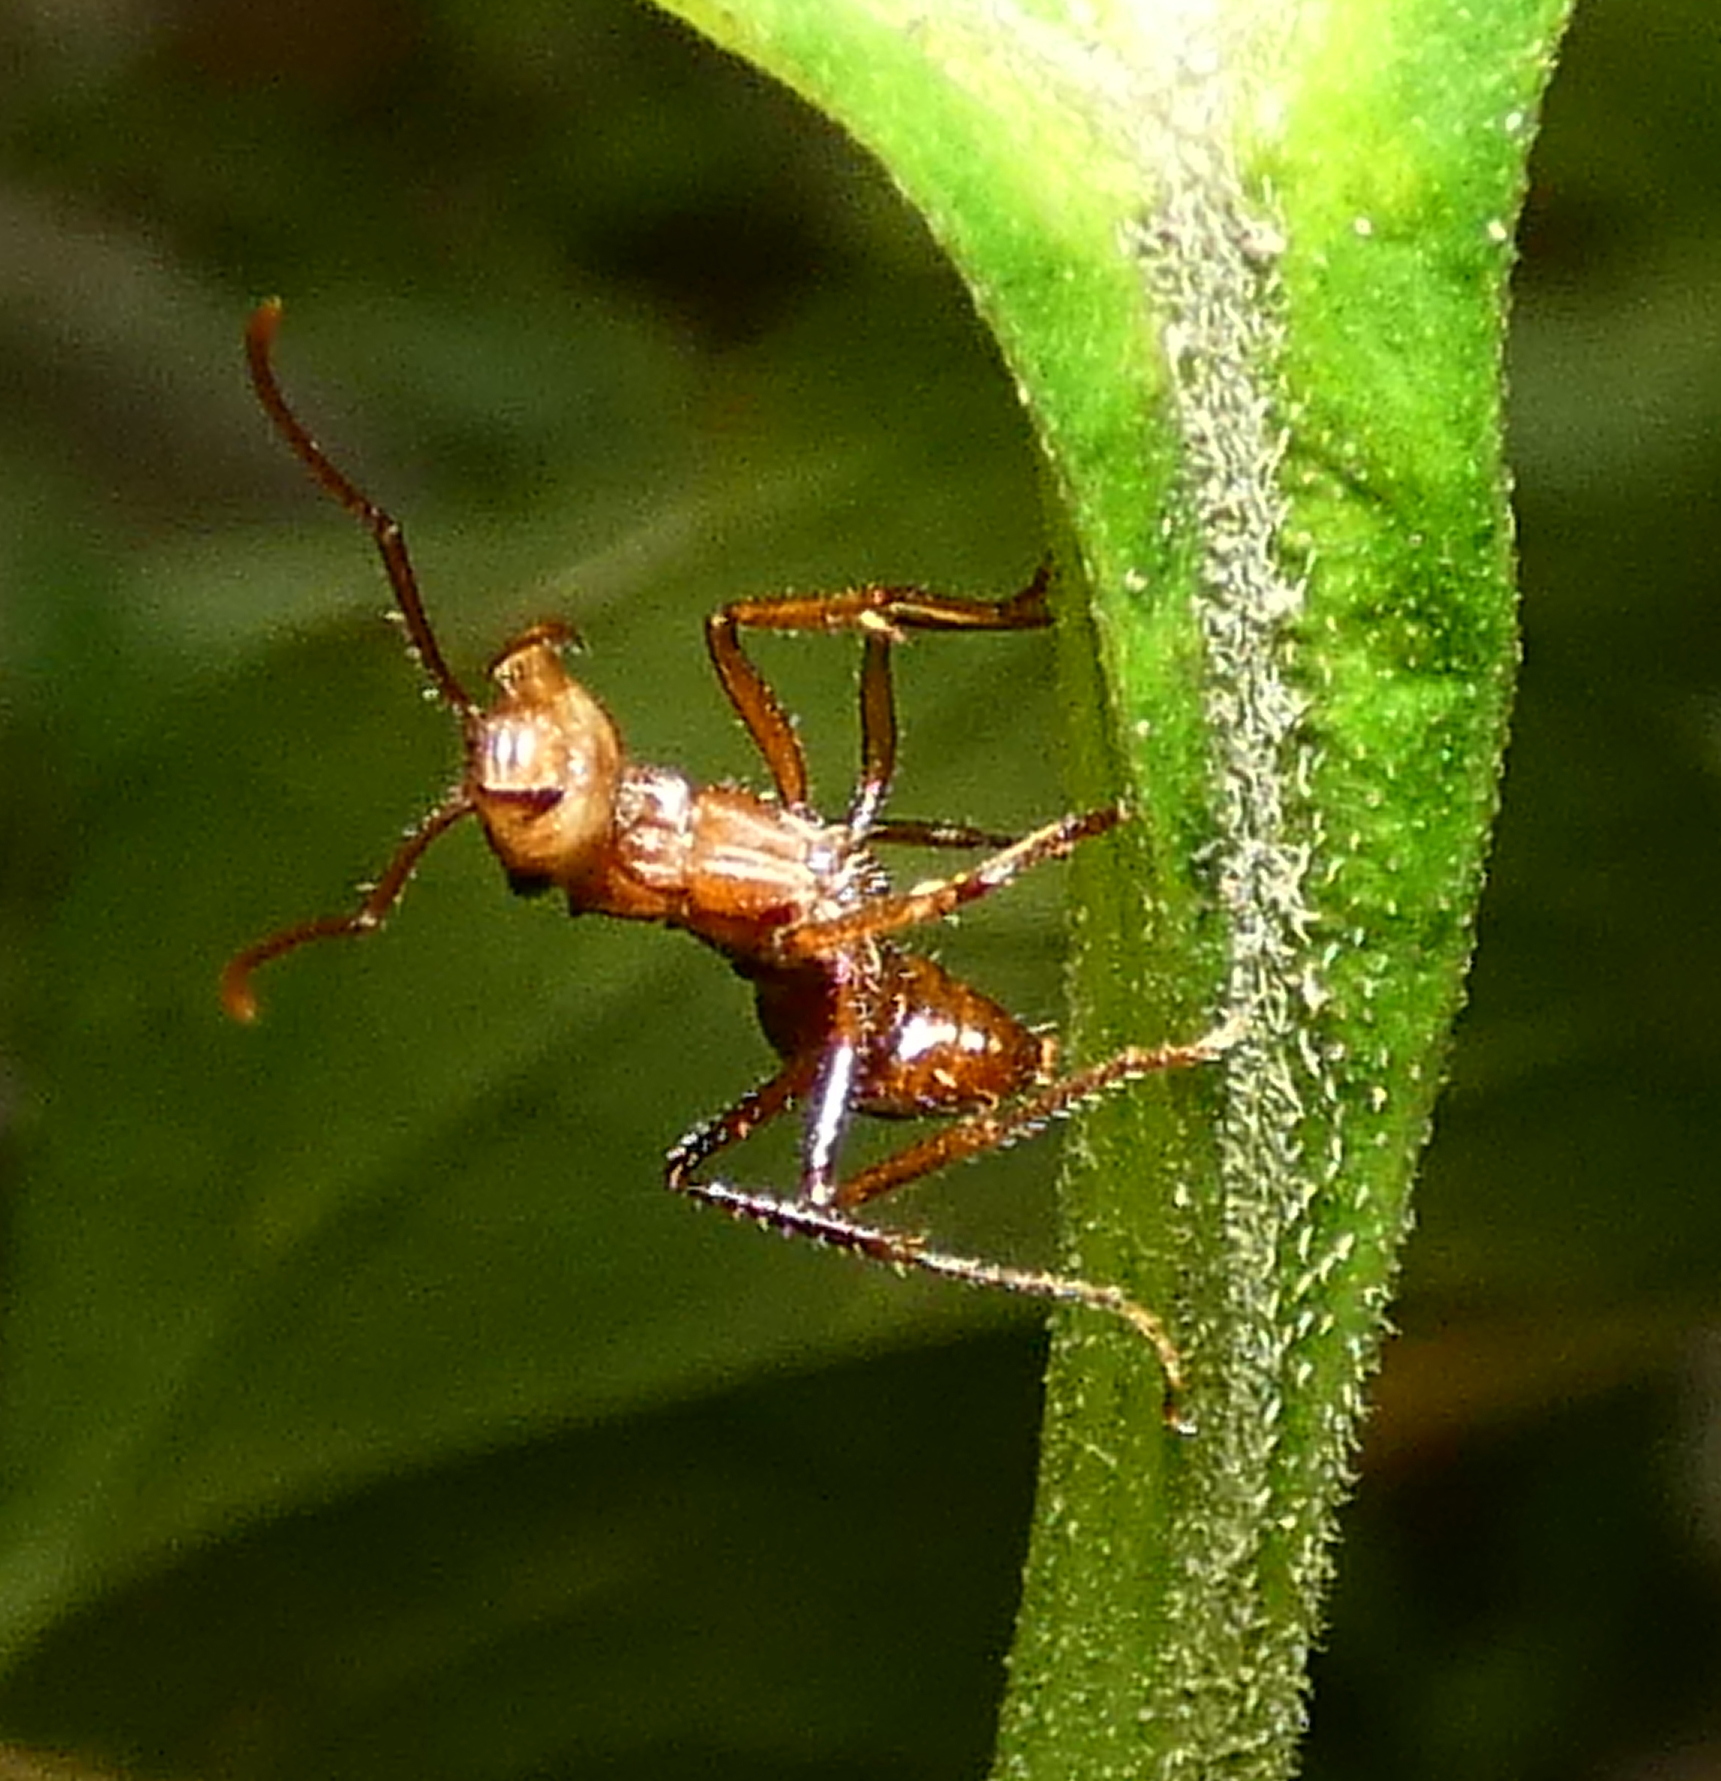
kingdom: Animalia
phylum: Arthropoda
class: Insecta
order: Hymenoptera
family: Formicidae
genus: Ectatomma
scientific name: Ectatomma tuberculatum
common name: Ant
